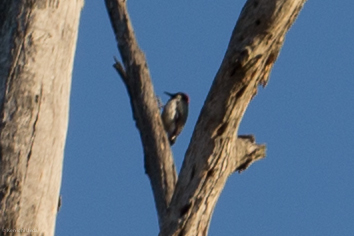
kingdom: Animalia
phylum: Chordata
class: Aves
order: Piciformes
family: Picidae
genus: Melanerpes
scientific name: Melanerpes formicivorus
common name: Acorn woodpecker
